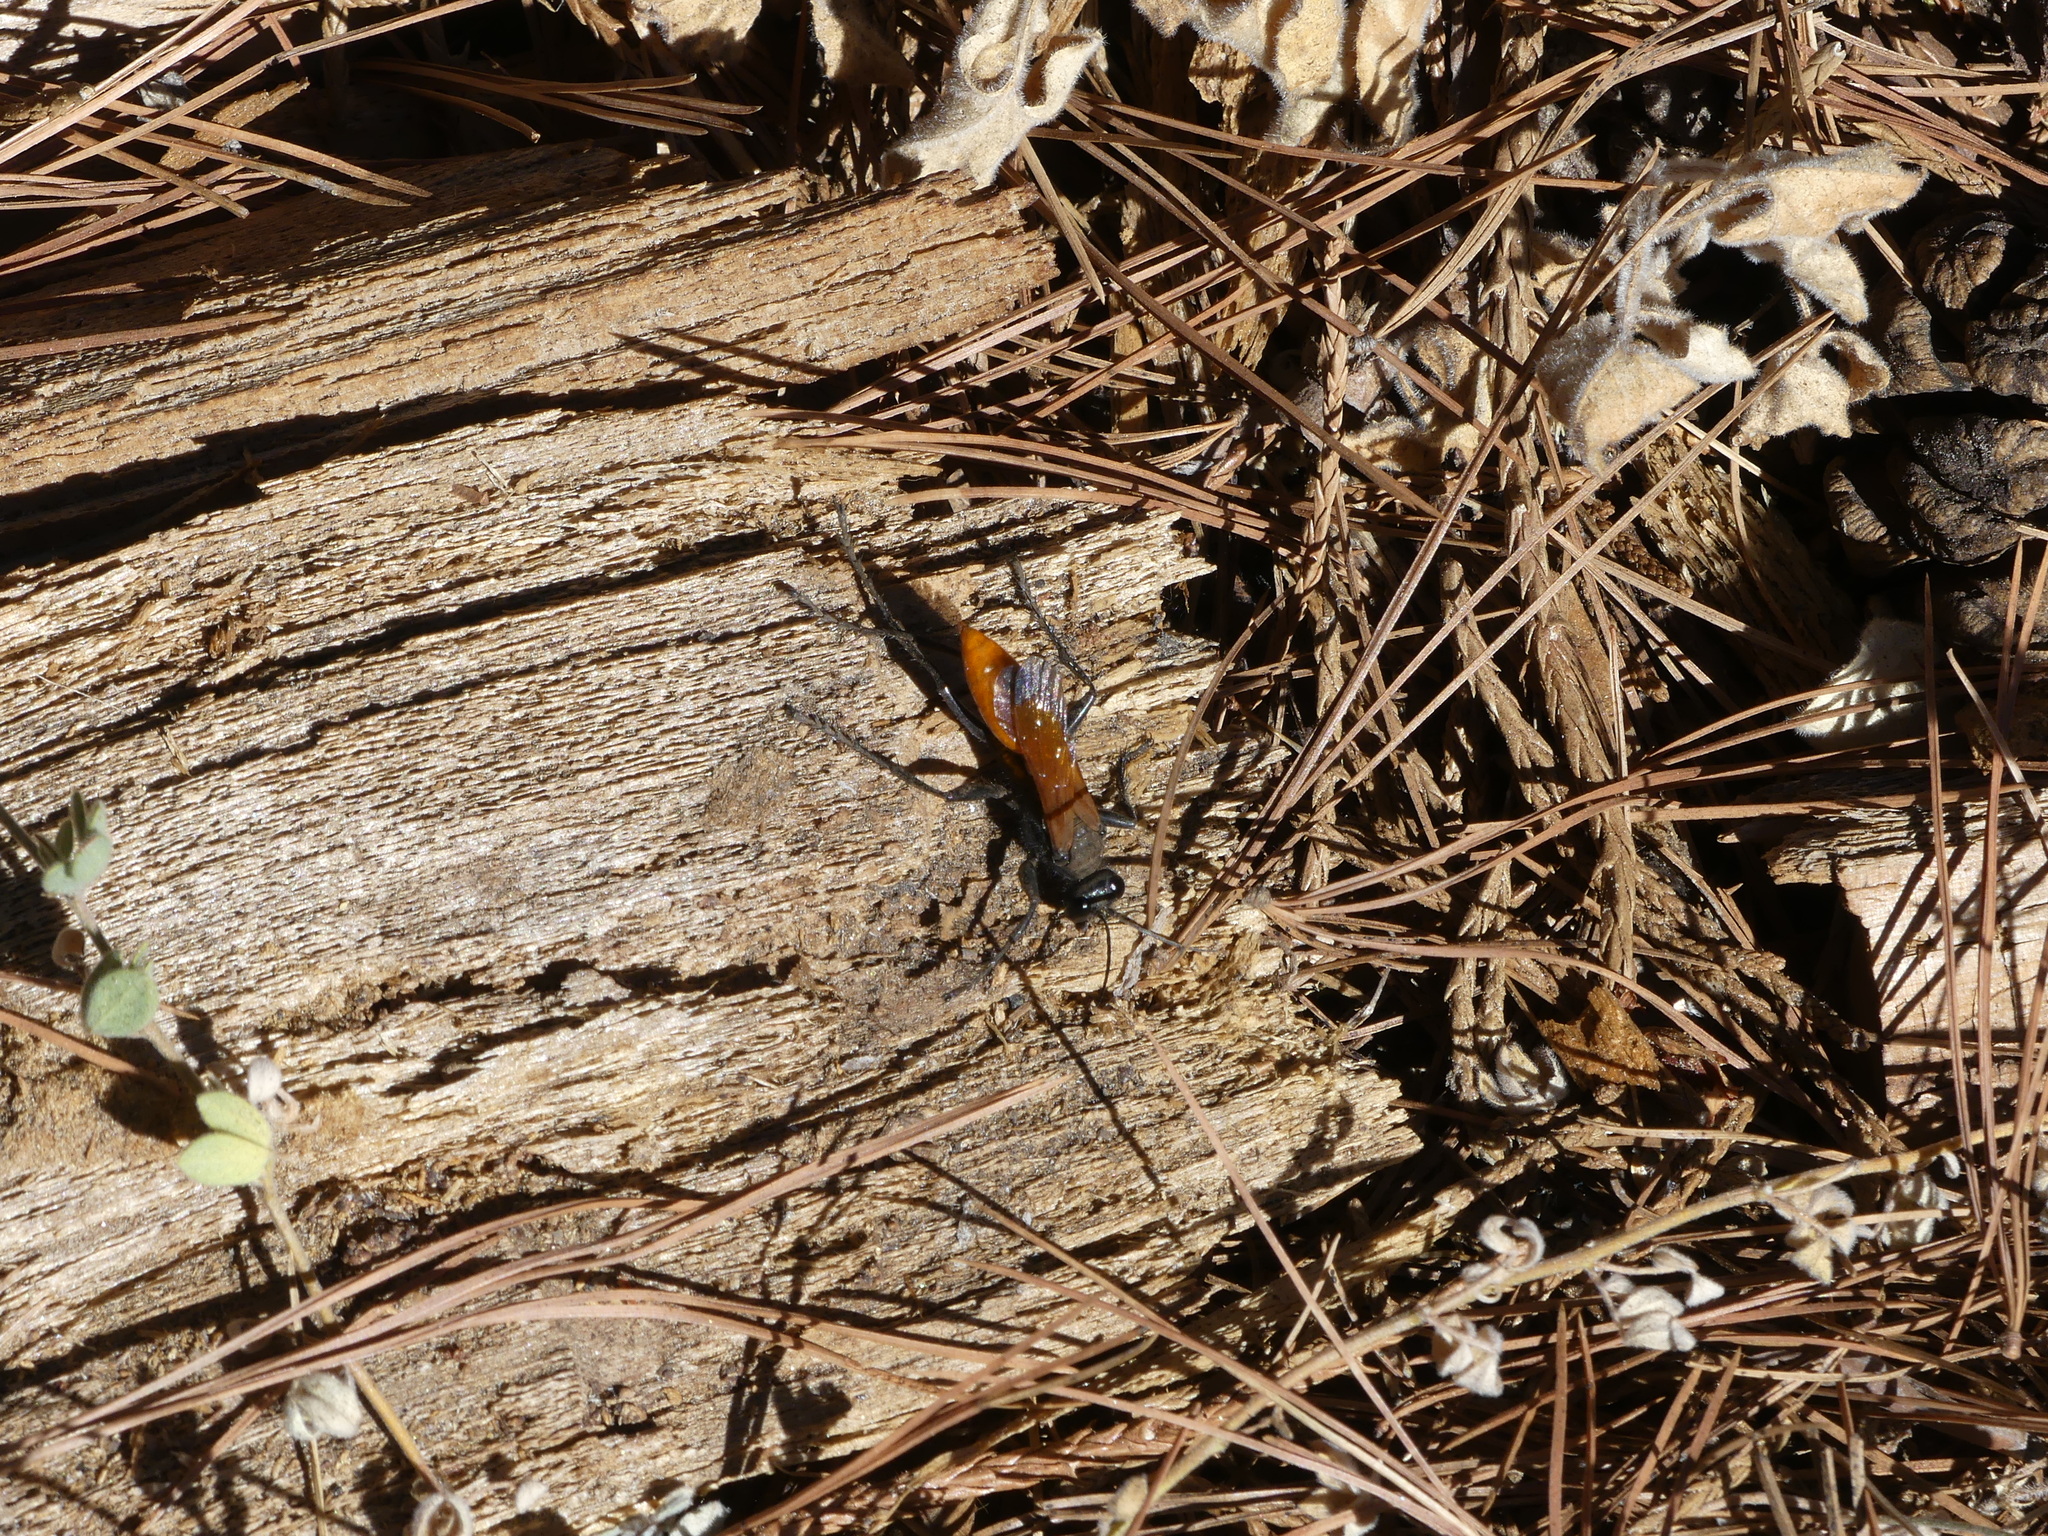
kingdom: Animalia
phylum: Arthropoda
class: Insecta
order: Hymenoptera
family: Sphecidae
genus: Palmodes
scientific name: Palmodes praestans
